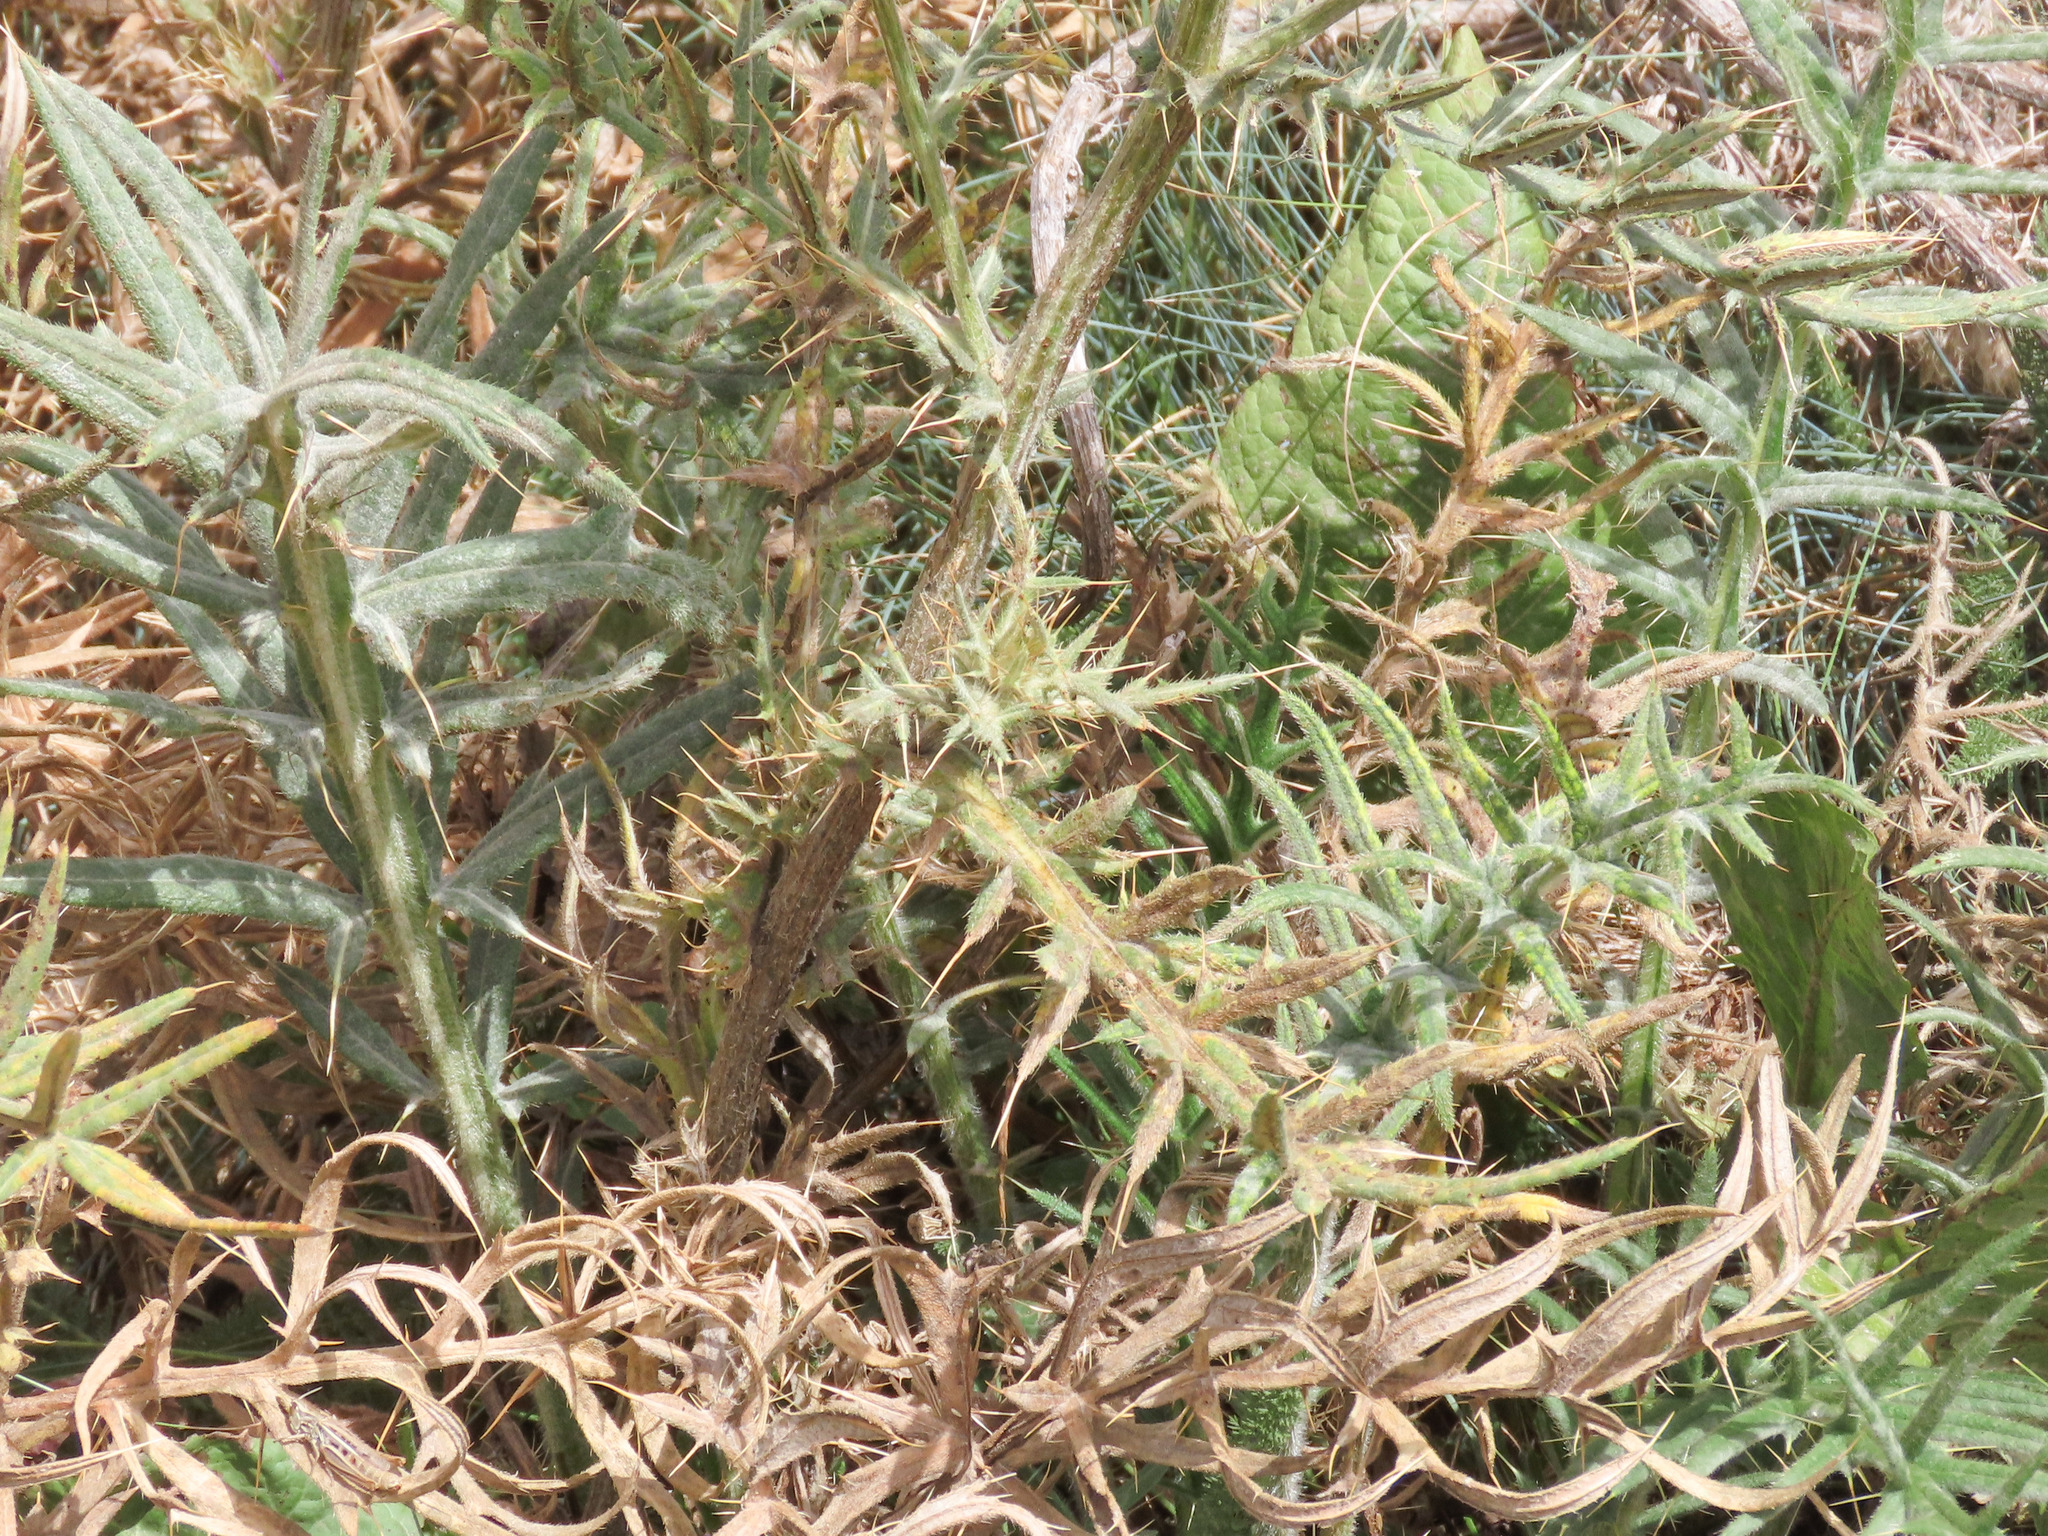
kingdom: Plantae
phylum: Tracheophyta
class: Magnoliopsida
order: Asterales
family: Asteraceae
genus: Lophiolepis
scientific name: Lophiolepis lobelii
